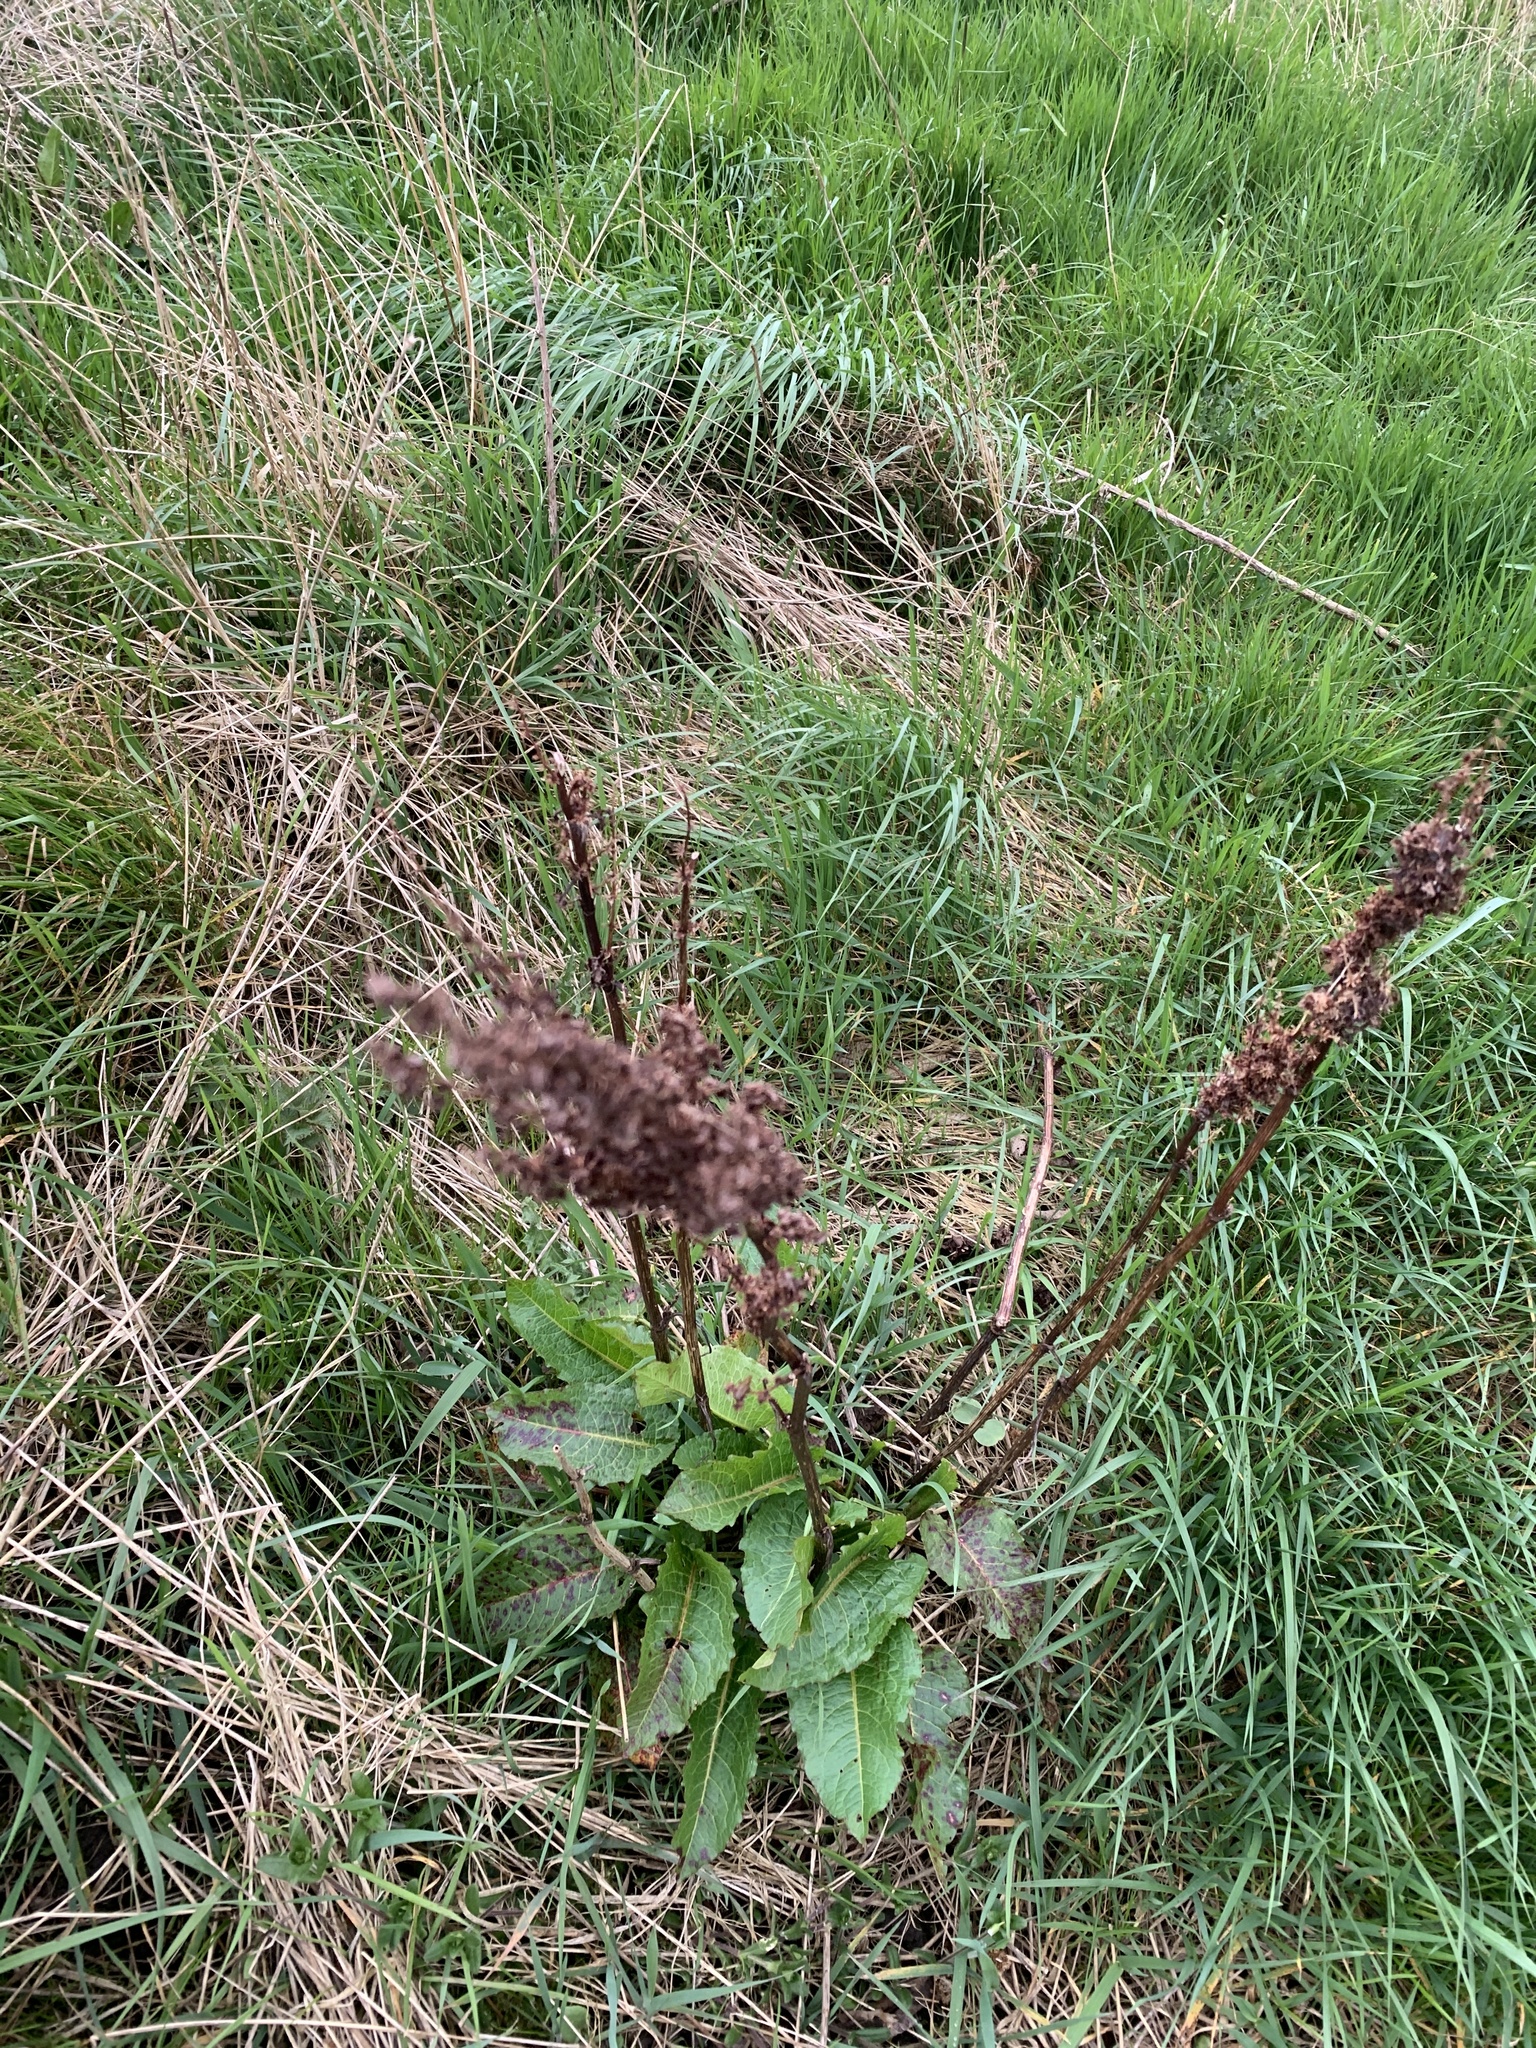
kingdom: Plantae
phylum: Tracheophyta
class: Magnoliopsida
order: Caryophyllales
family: Polygonaceae
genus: Rumex
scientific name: Rumex obtusifolius
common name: Bitter dock
